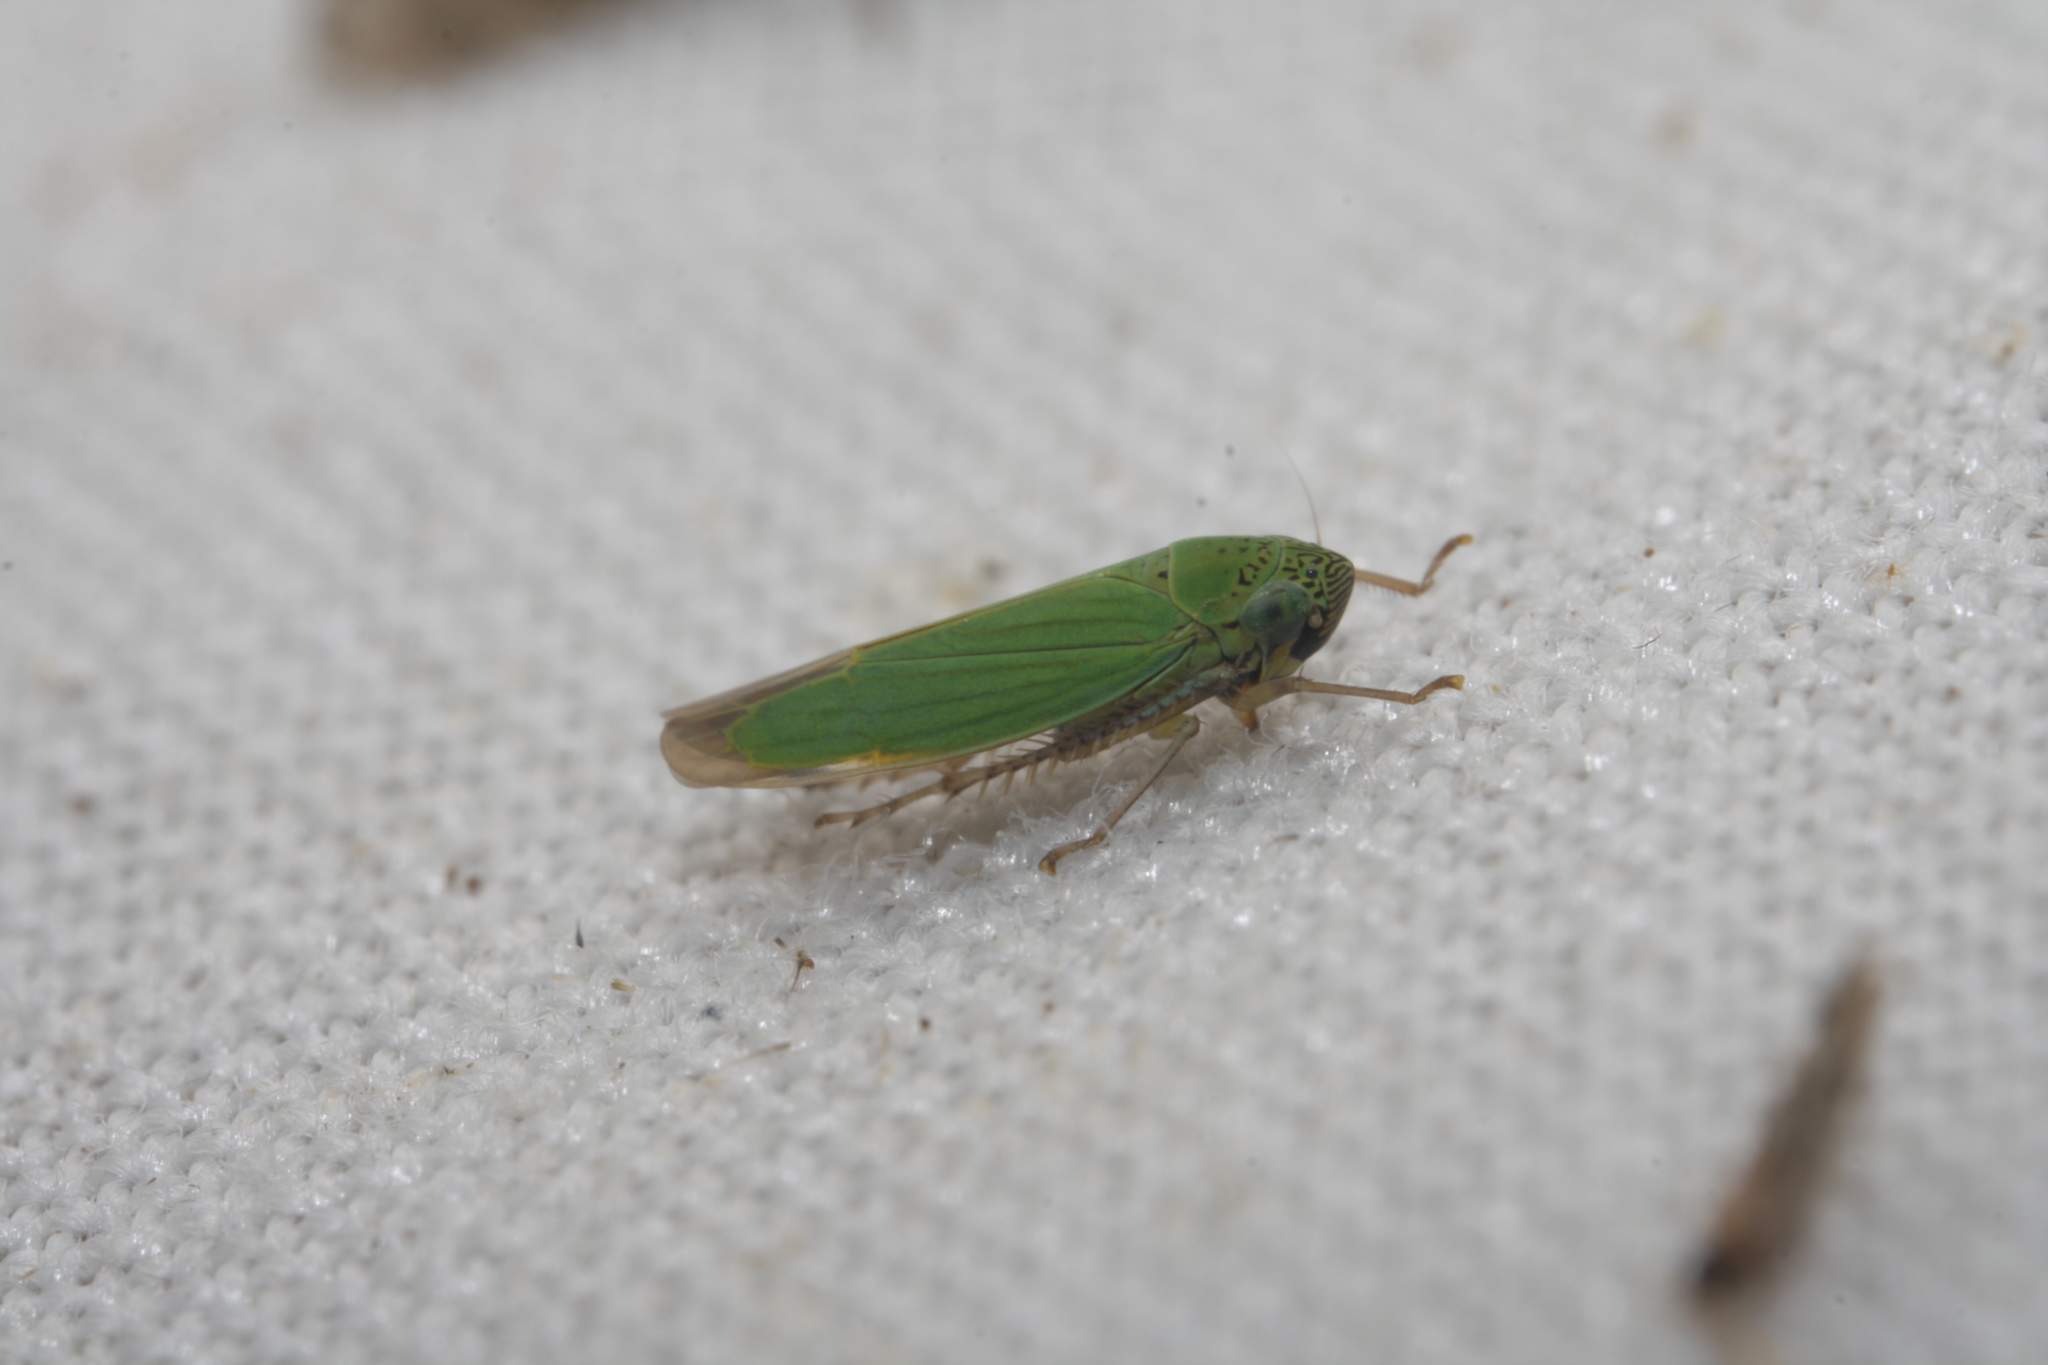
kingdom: Animalia
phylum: Arthropoda
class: Insecta
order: Hemiptera
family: Cicadellidae
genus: Hortensia
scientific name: Hortensia similis
